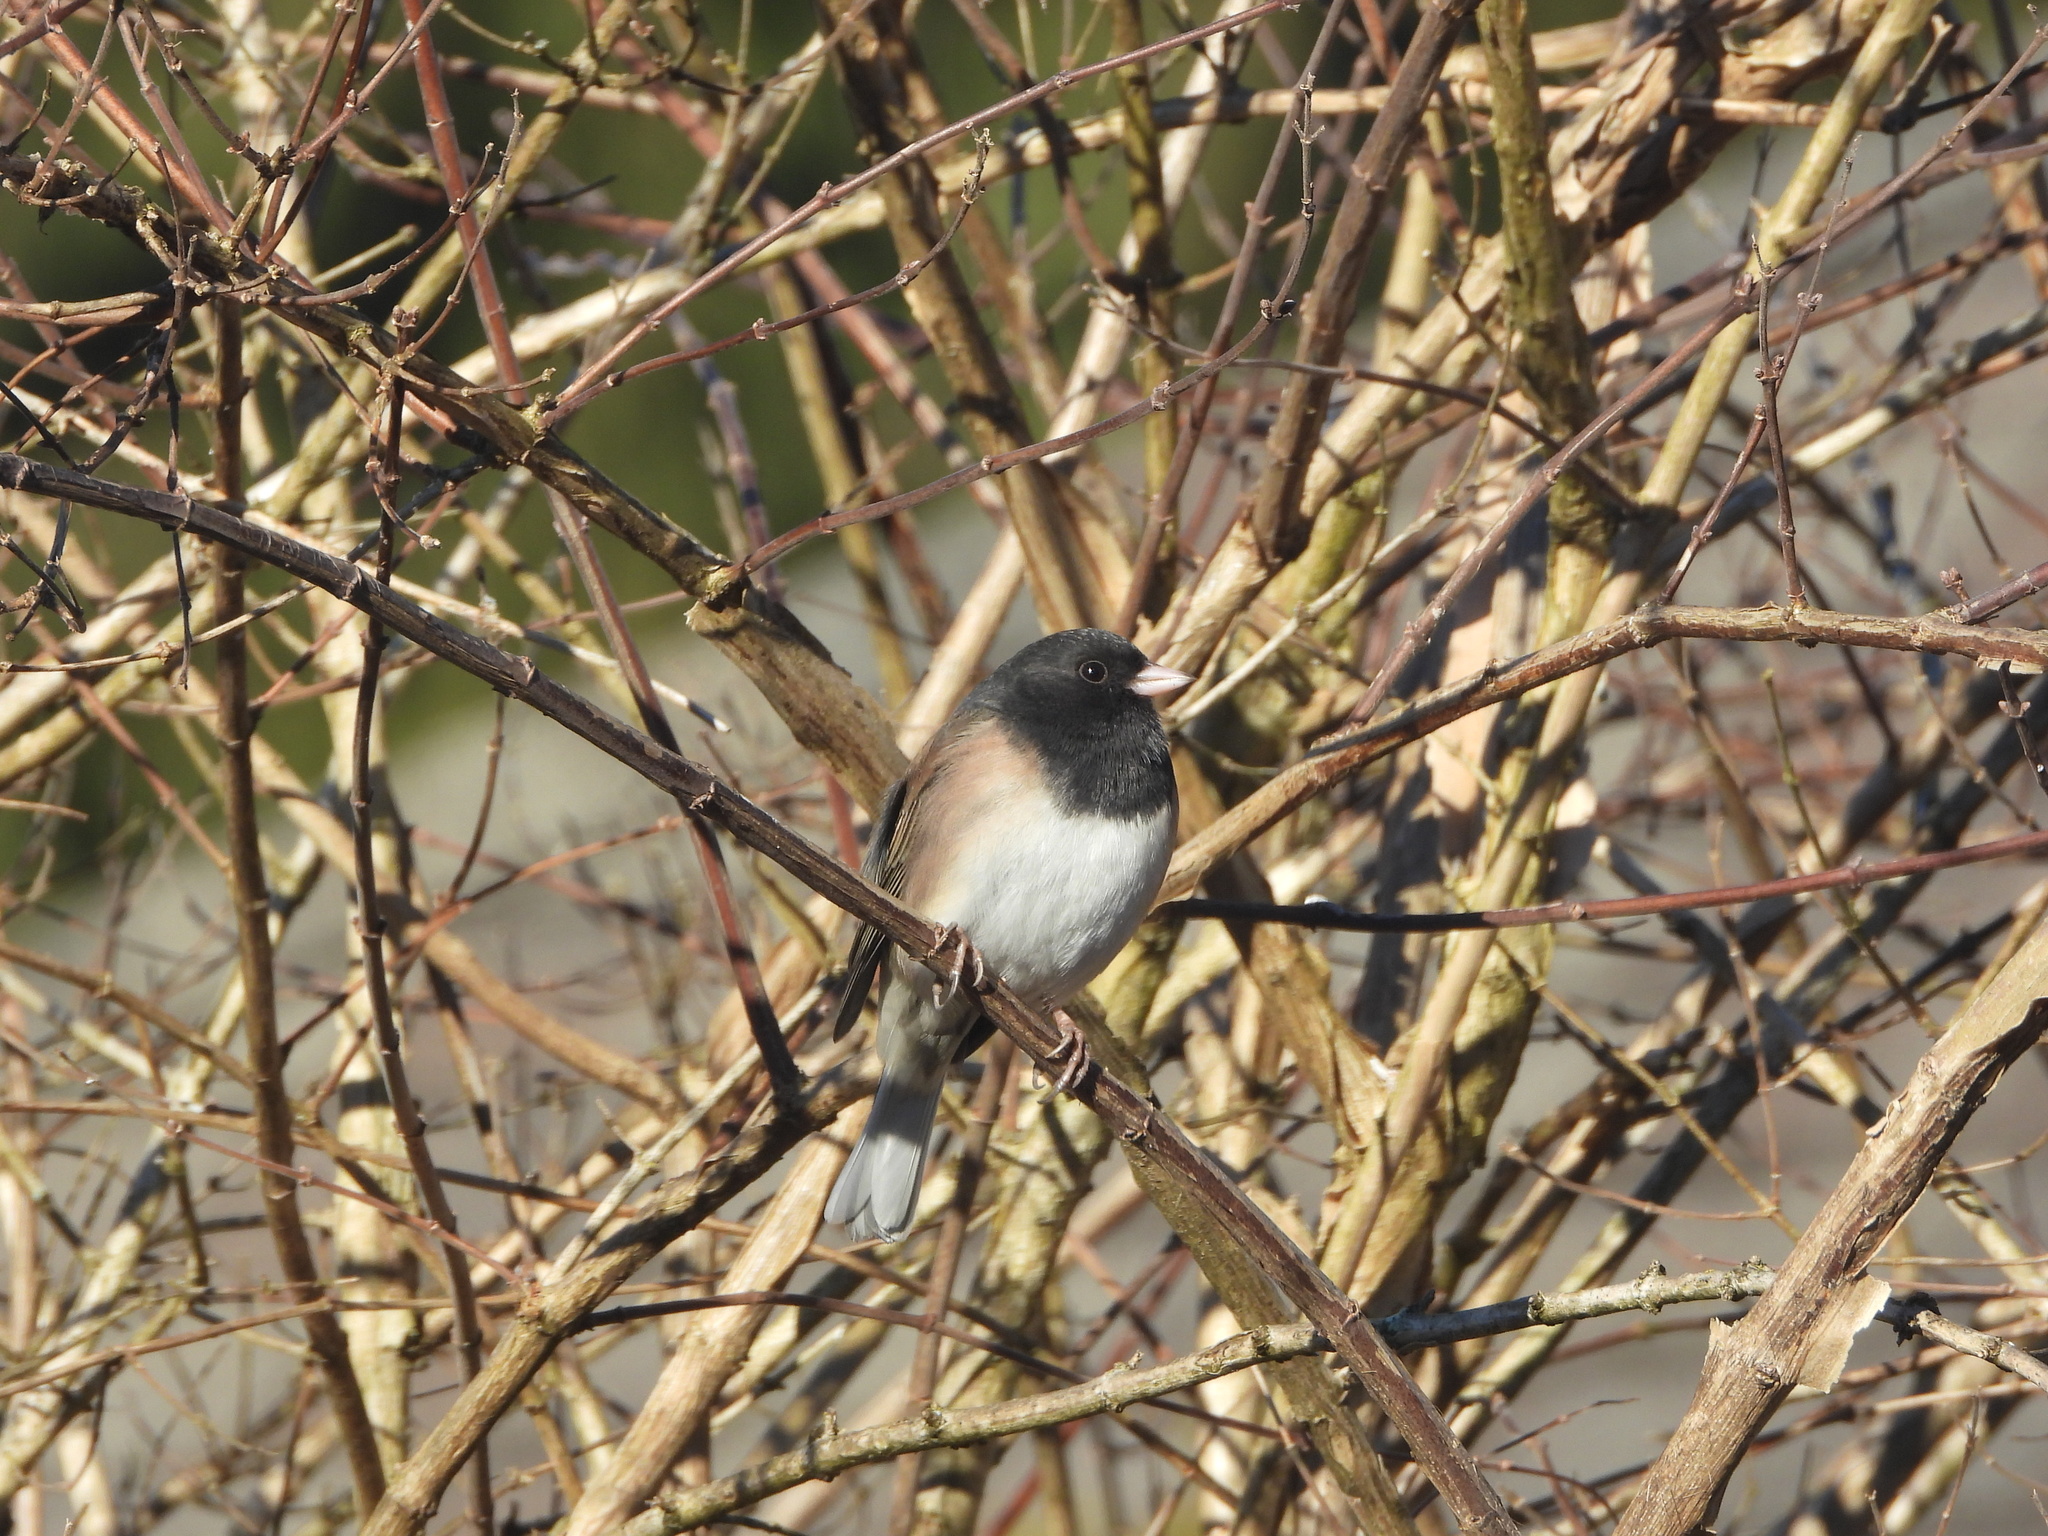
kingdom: Animalia
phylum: Chordata
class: Aves
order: Passeriformes
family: Passerellidae
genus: Junco
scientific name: Junco hyemalis
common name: Dark-eyed junco
